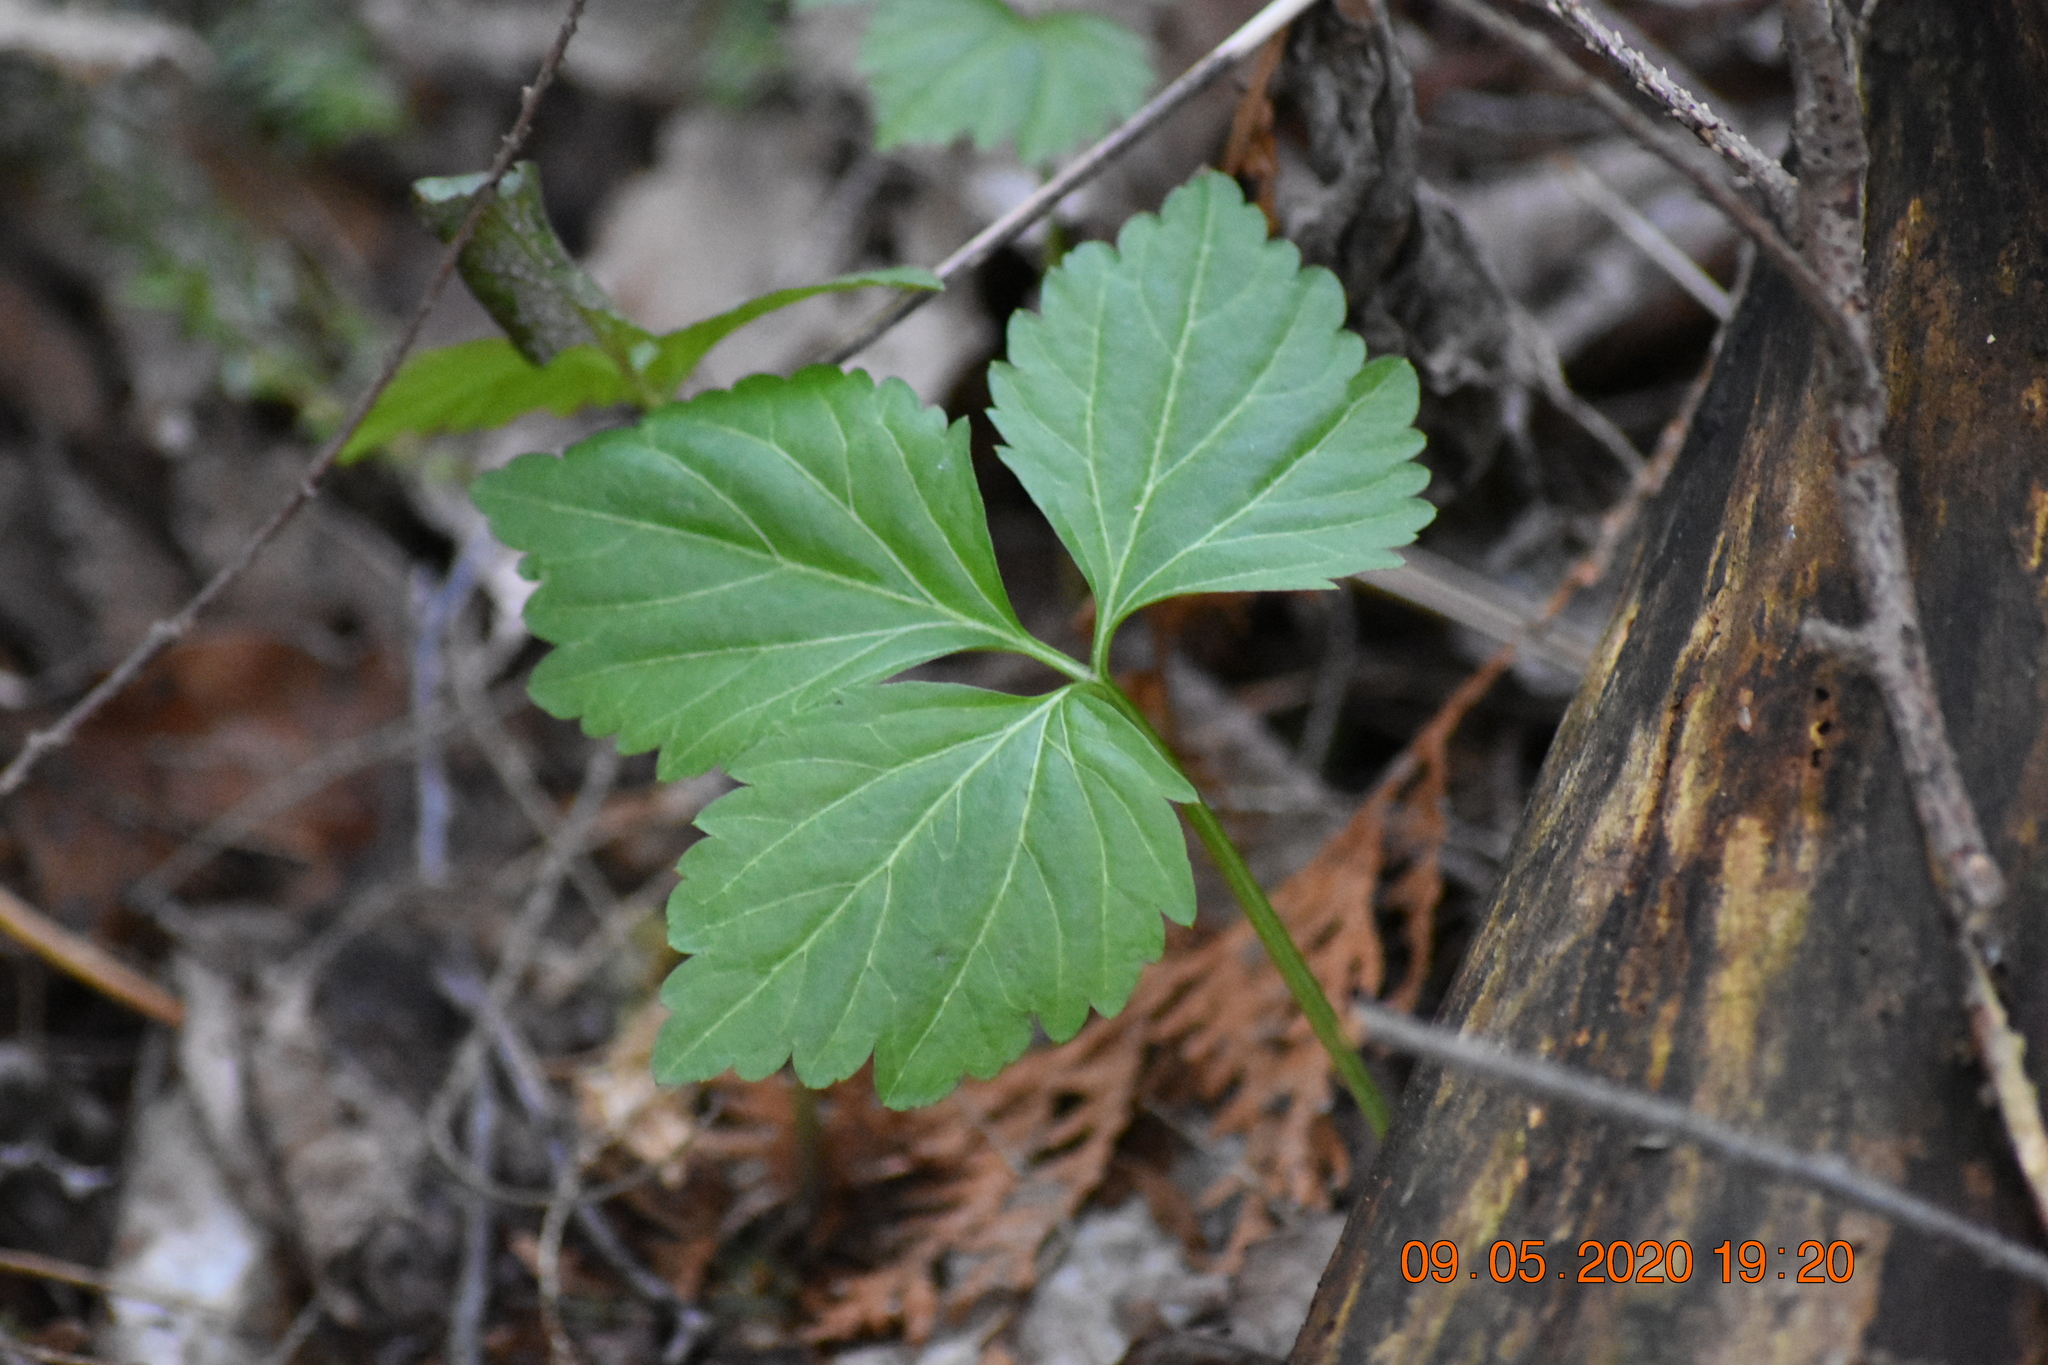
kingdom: Plantae
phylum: Tracheophyta
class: Magnoliopsida
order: Brassicales
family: Brassicaceae
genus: Cardamine
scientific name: Cardamine diphylla
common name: Broad-leaved toothwort
